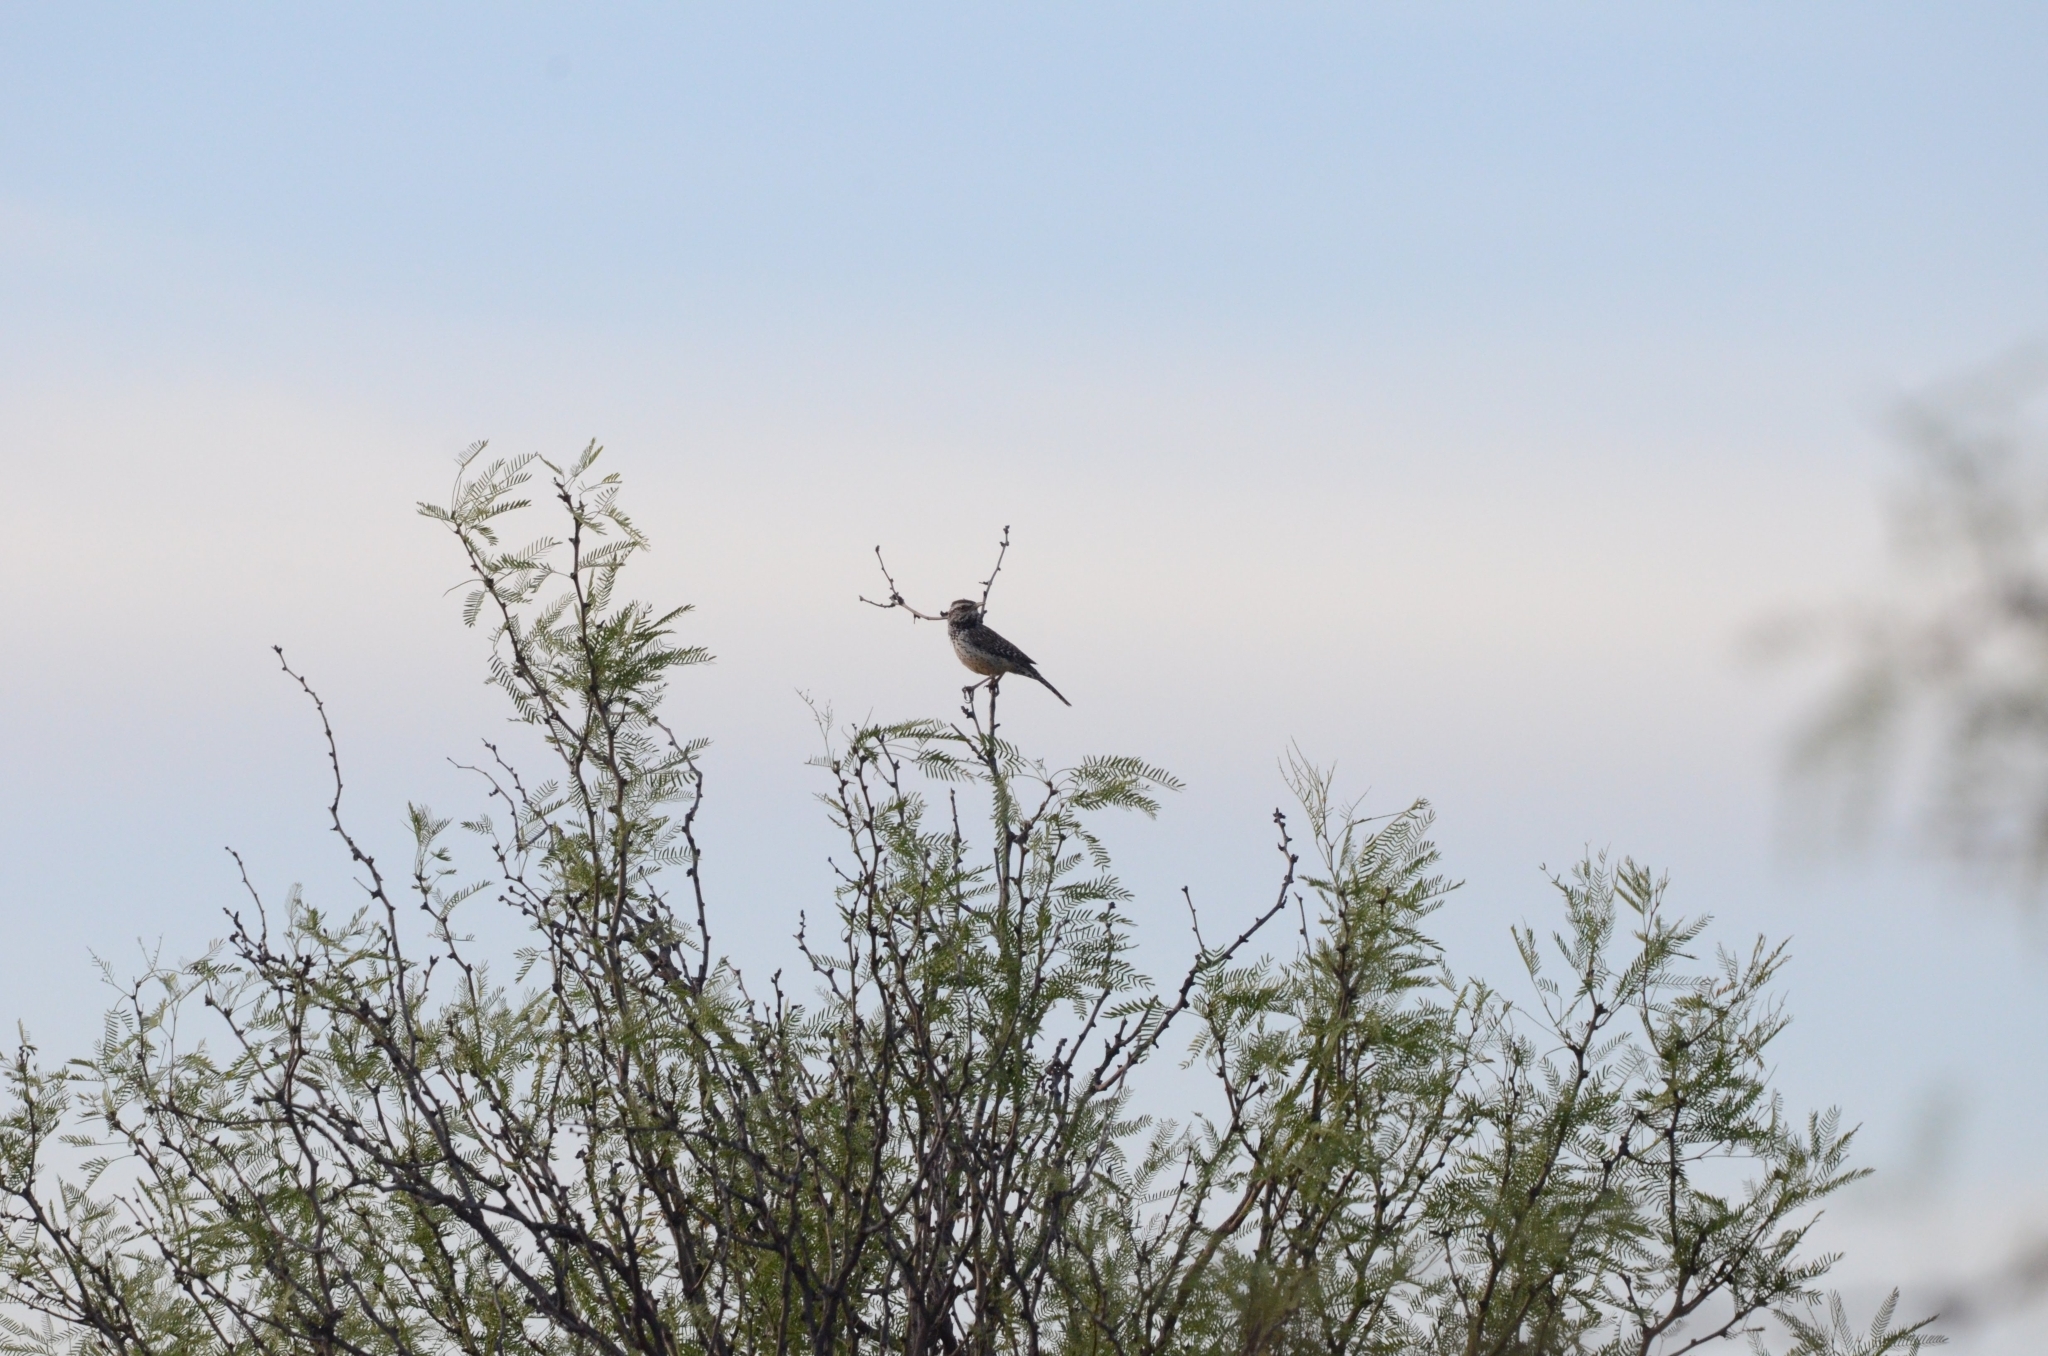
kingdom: Animalia
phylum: Chordata
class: Aves
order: Passeriformes
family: Troglodytidae
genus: Campylorhynchus
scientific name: Campylorhynchus brunneicapillus
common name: Cactus wren
